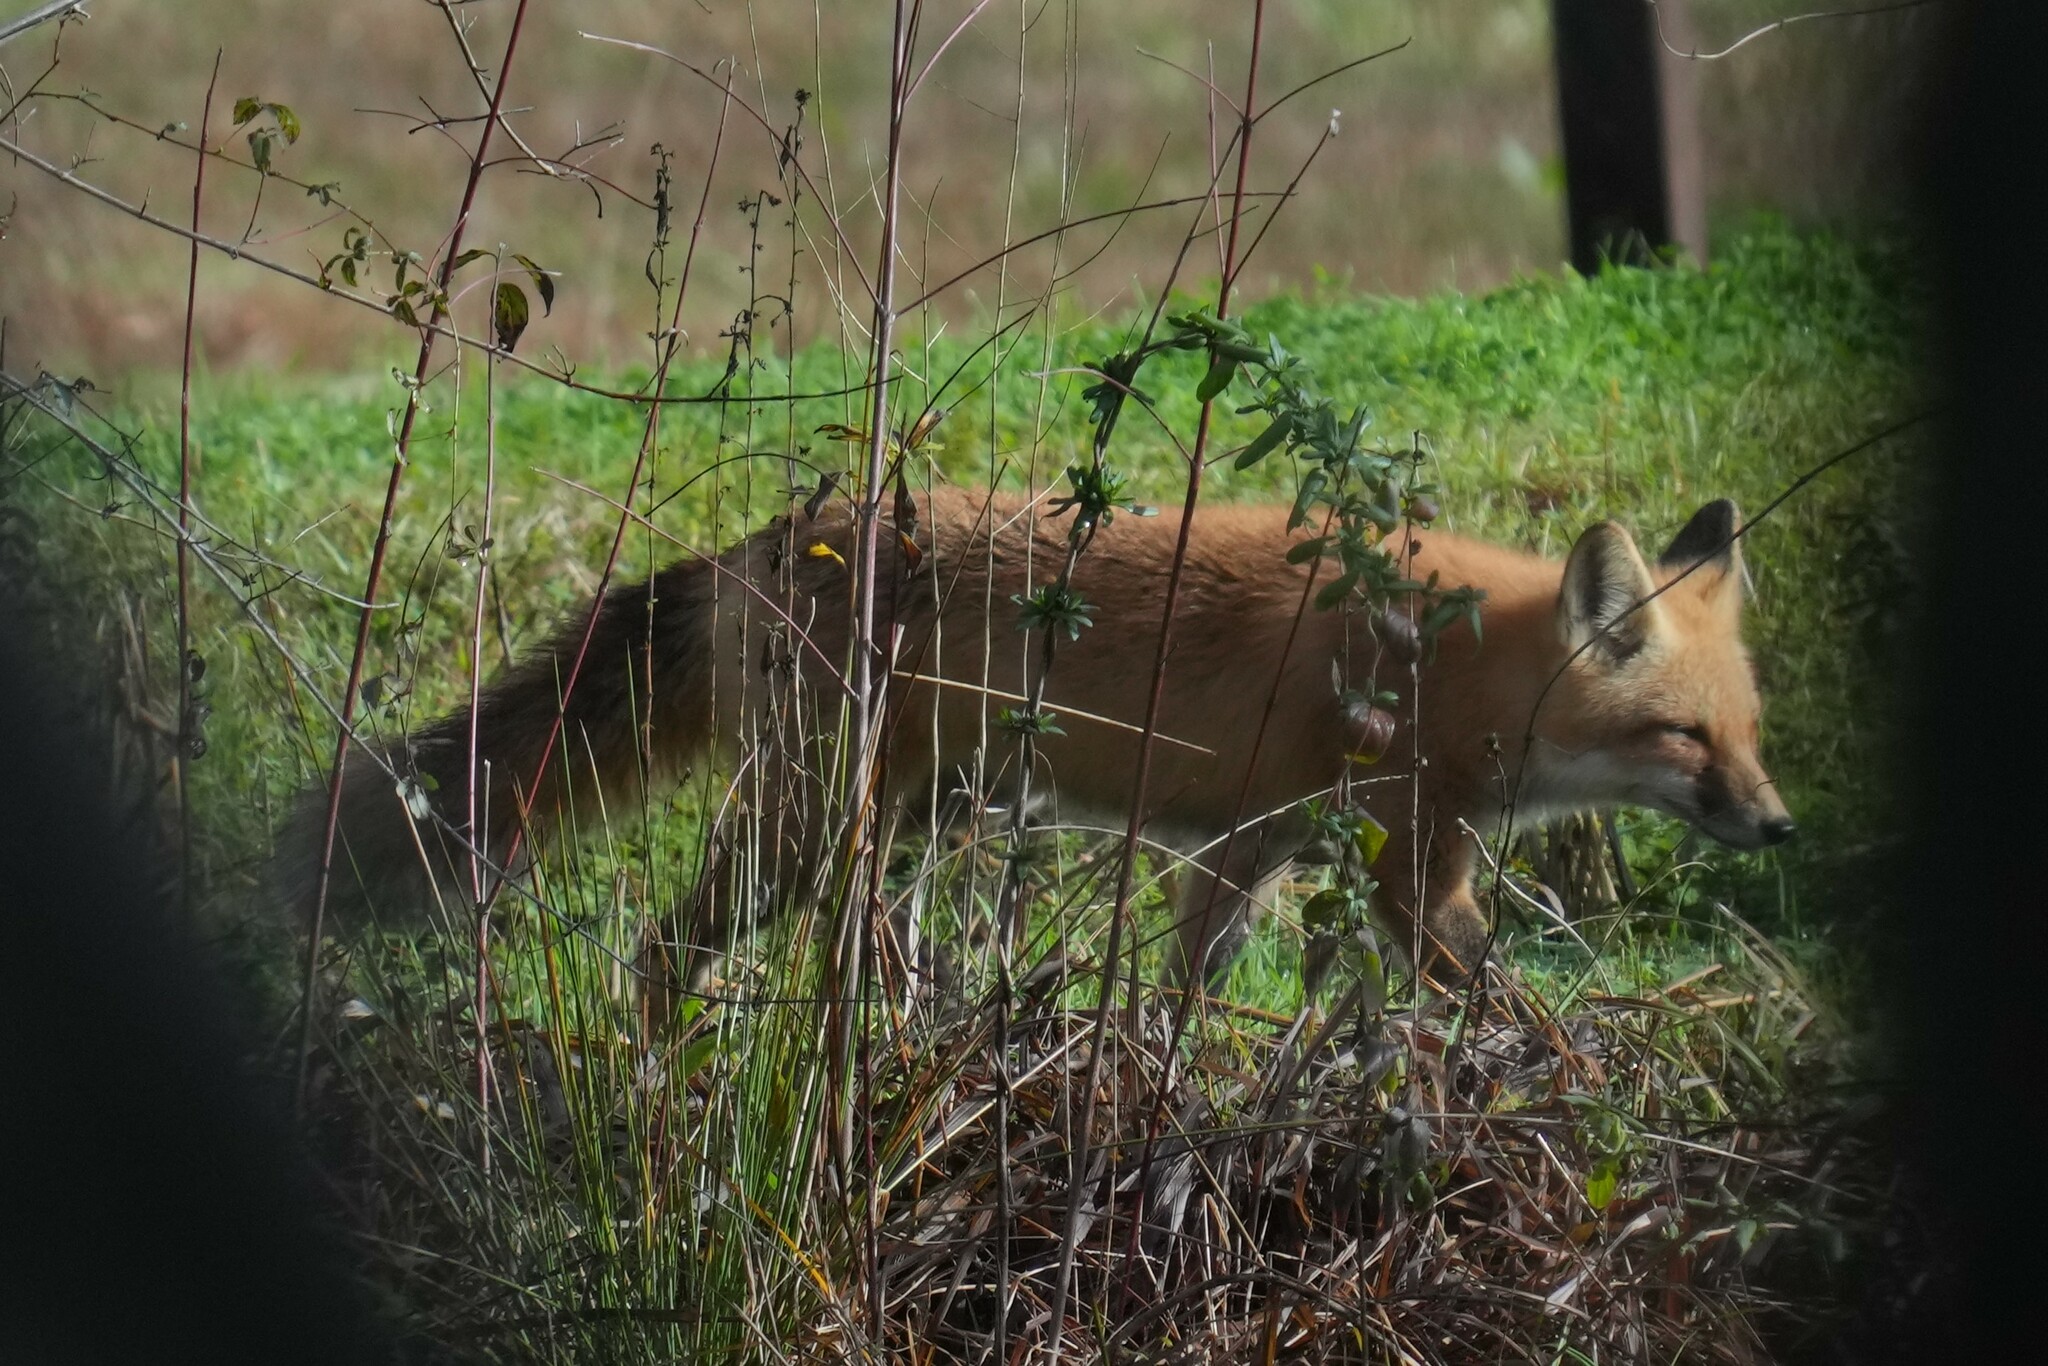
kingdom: Animalia
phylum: Chordata
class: Mammalia
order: Carnivora
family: Canidae
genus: Vulpes
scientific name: Vulpes vulpes
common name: Red fox
